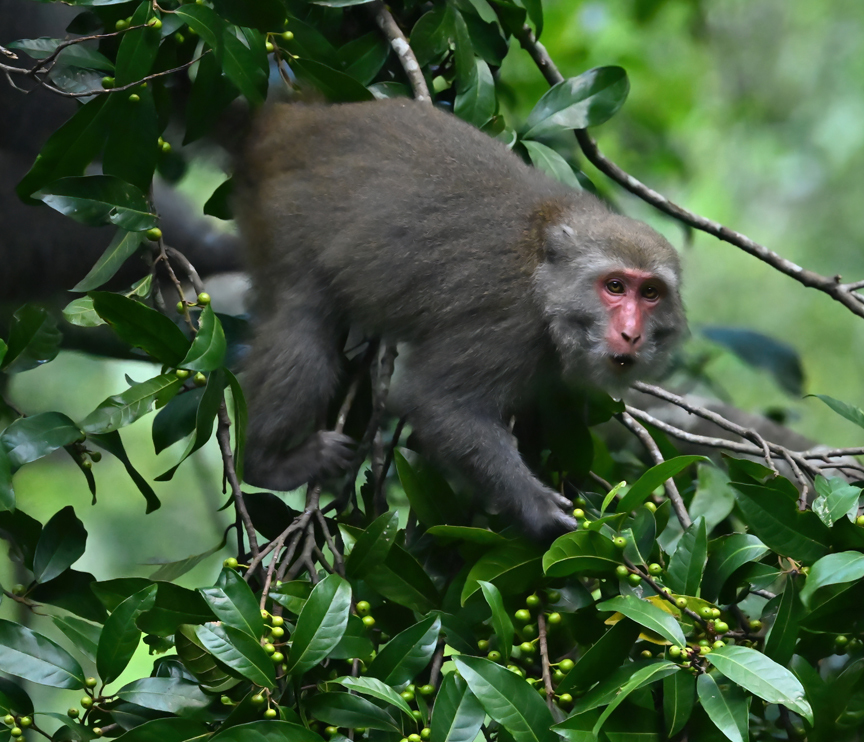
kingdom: Animalia
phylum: Chordata
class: Mammalia
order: Primates
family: Cercopithecidae
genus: Macaca
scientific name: Macaca cyclopis
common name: Formosan rock macaque
